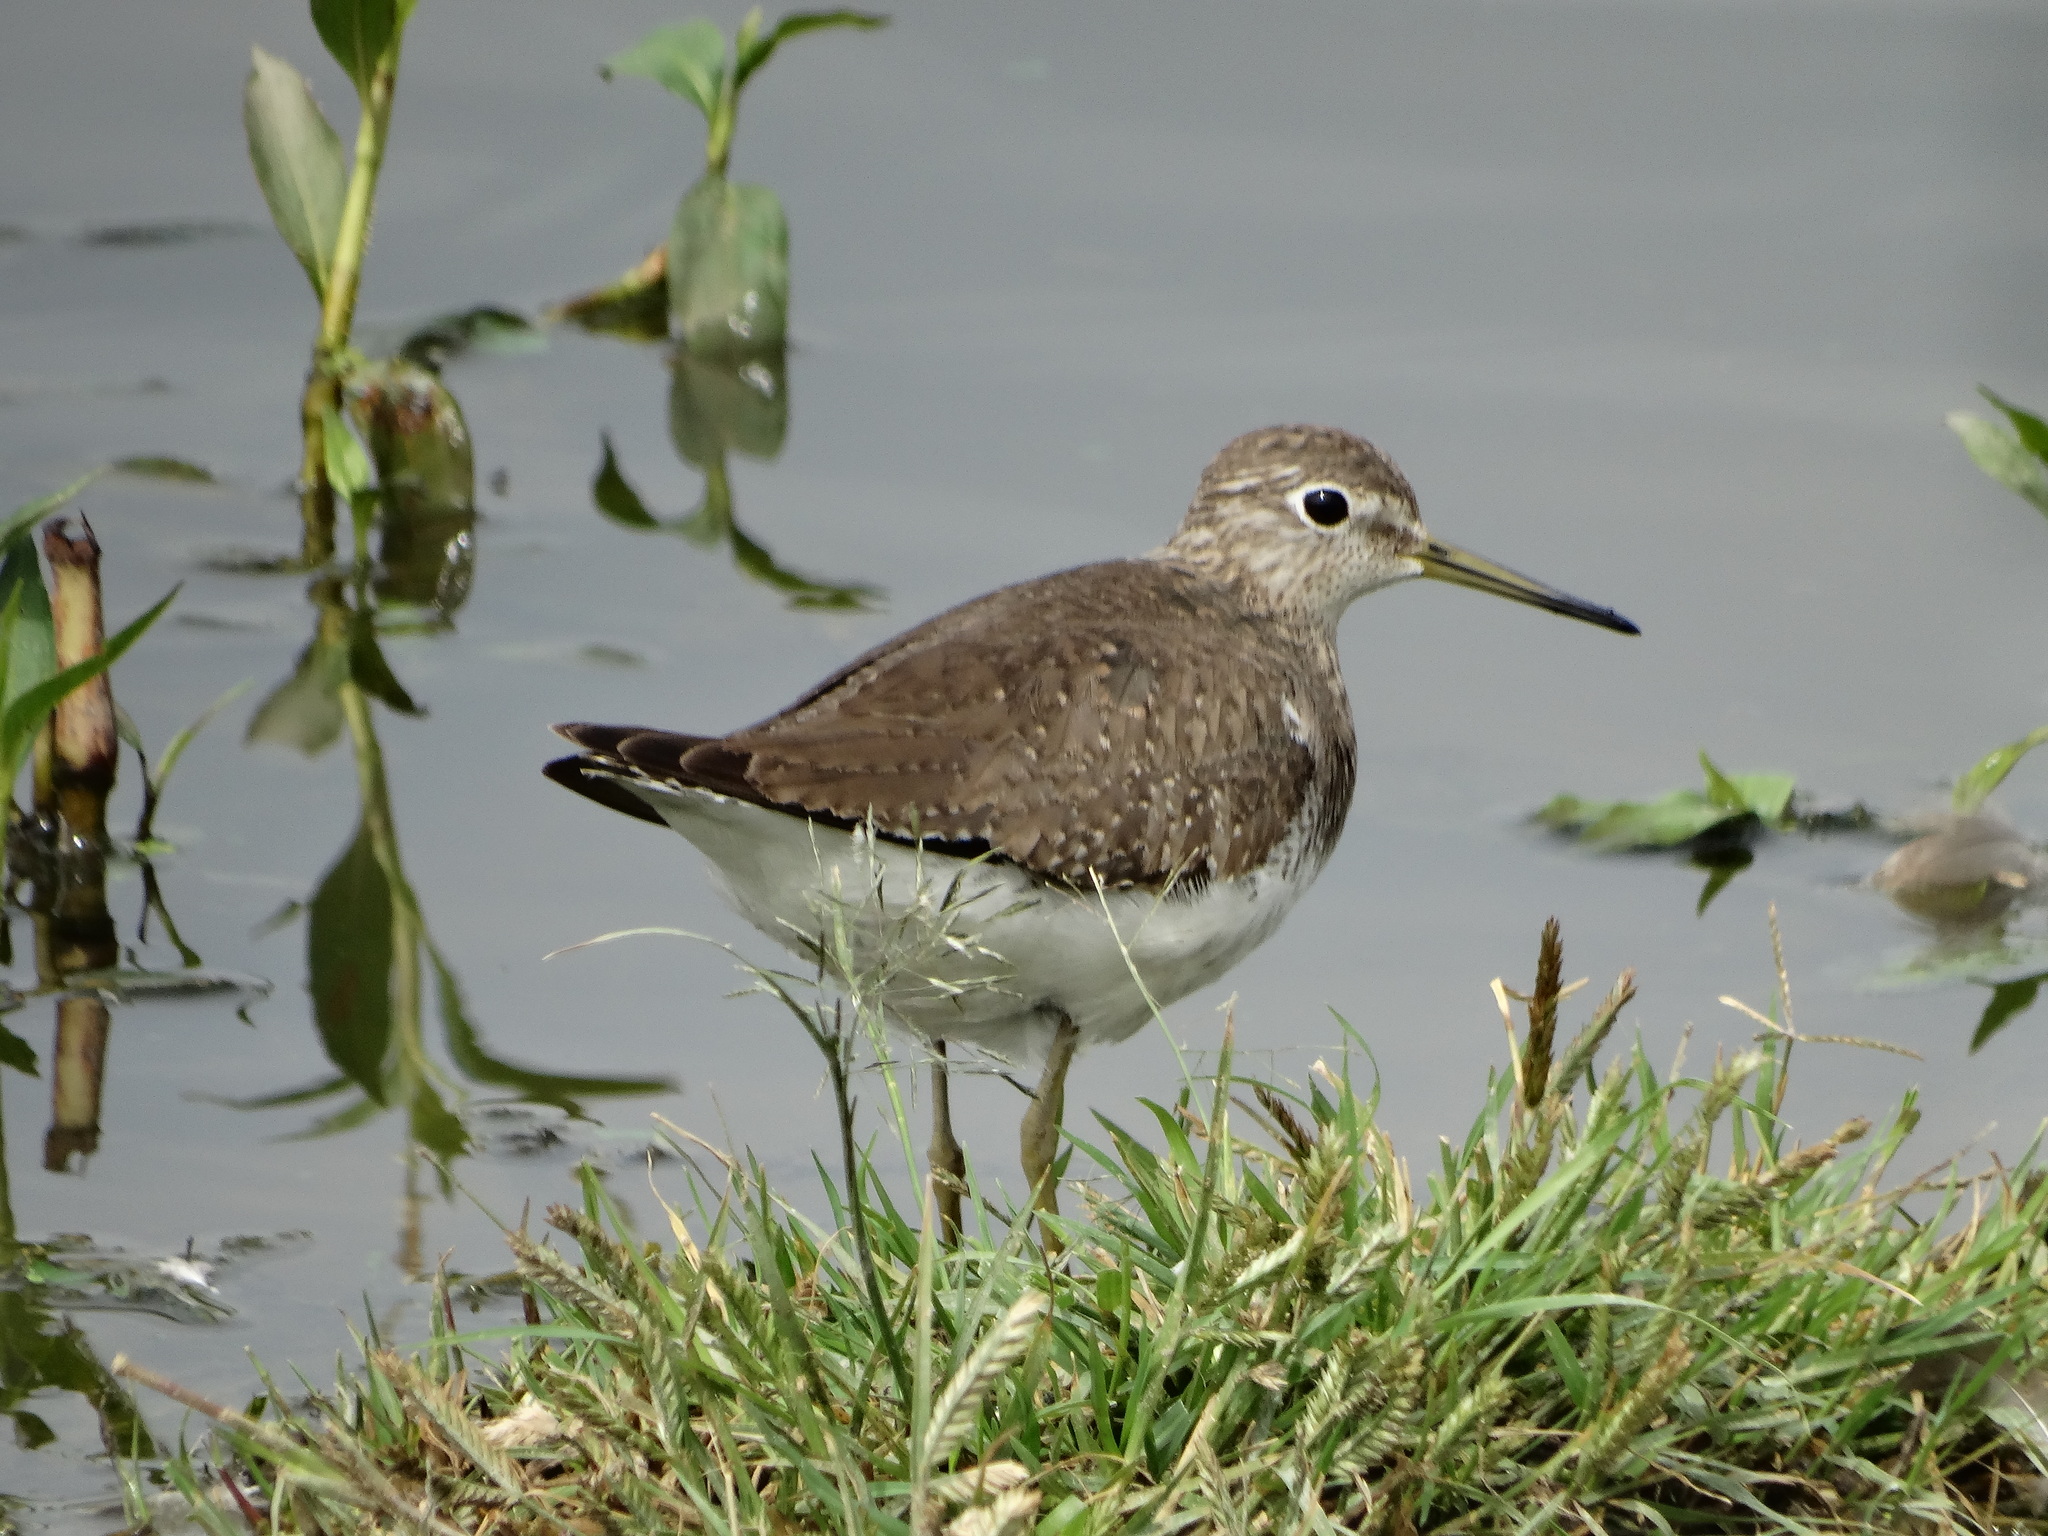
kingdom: Animalia
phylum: Chordata
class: Aves
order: Charadriiformes
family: Scolopacidae
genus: Tringa
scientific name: Tringa solitaria
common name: Solitary sandpiper
